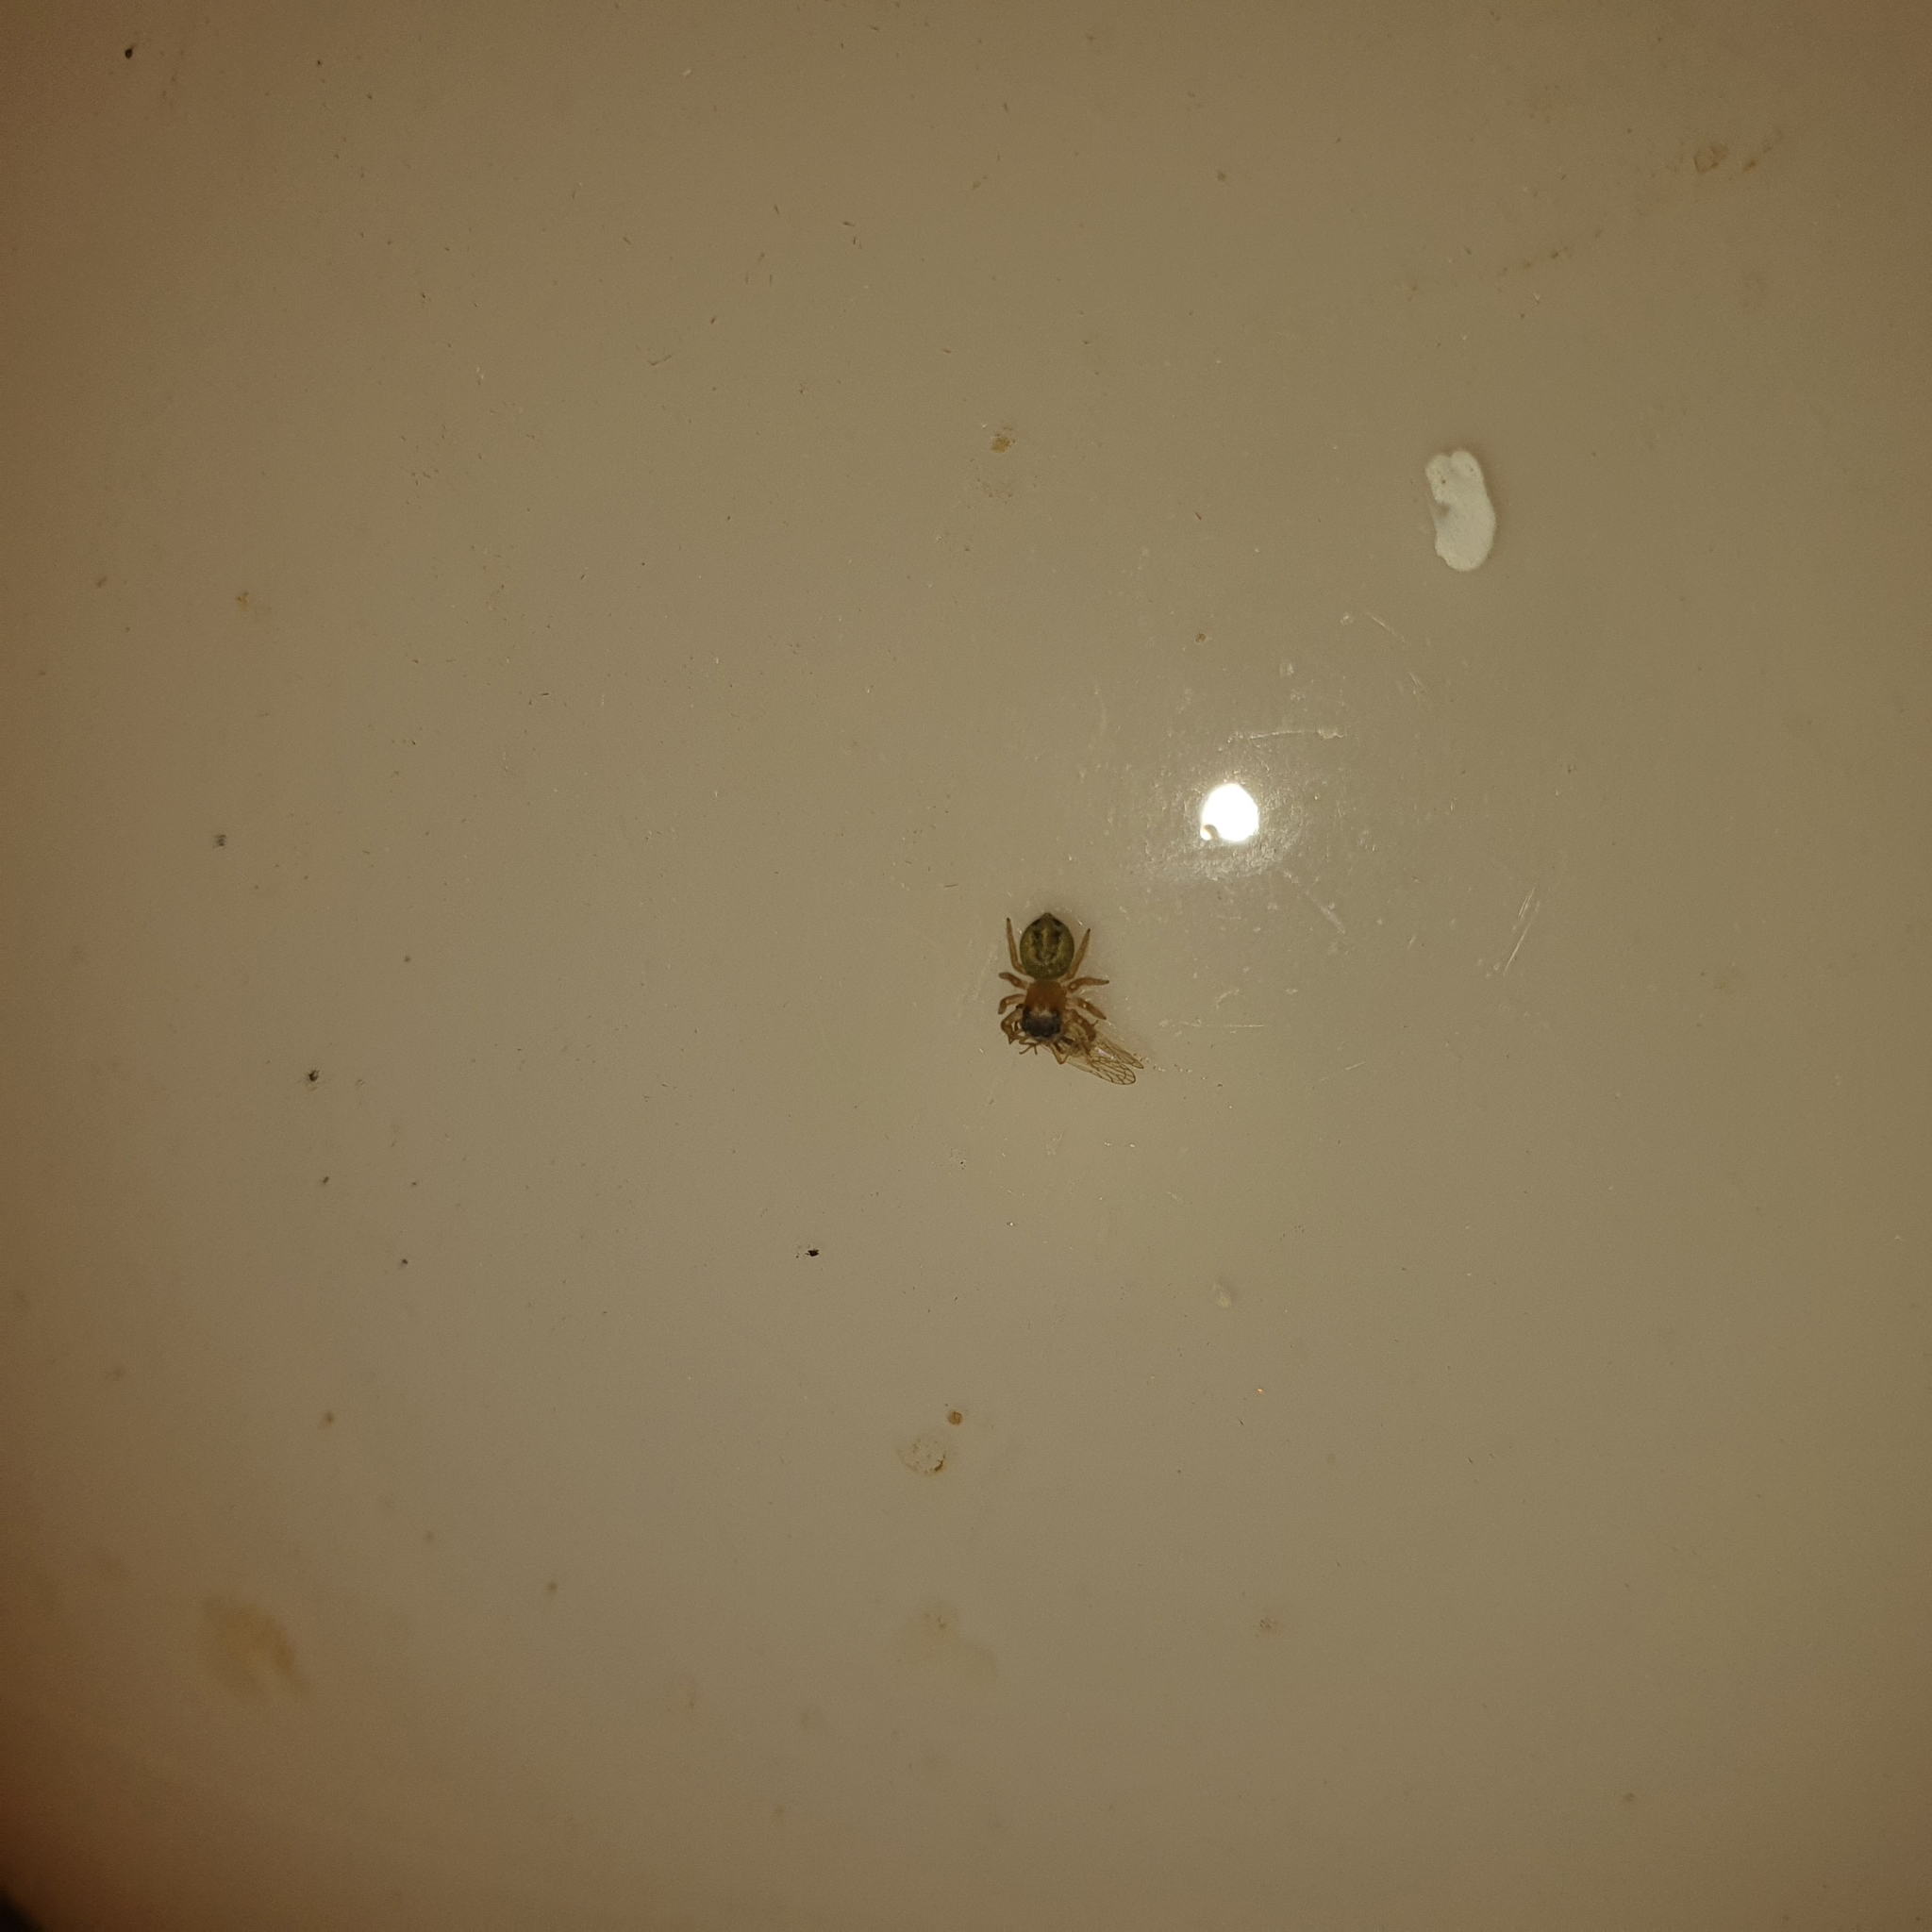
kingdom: Animalia
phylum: Arthropoda
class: Arachnida
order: Araneae
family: Salticidae
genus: Maratus
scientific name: Maratus scutulatus
